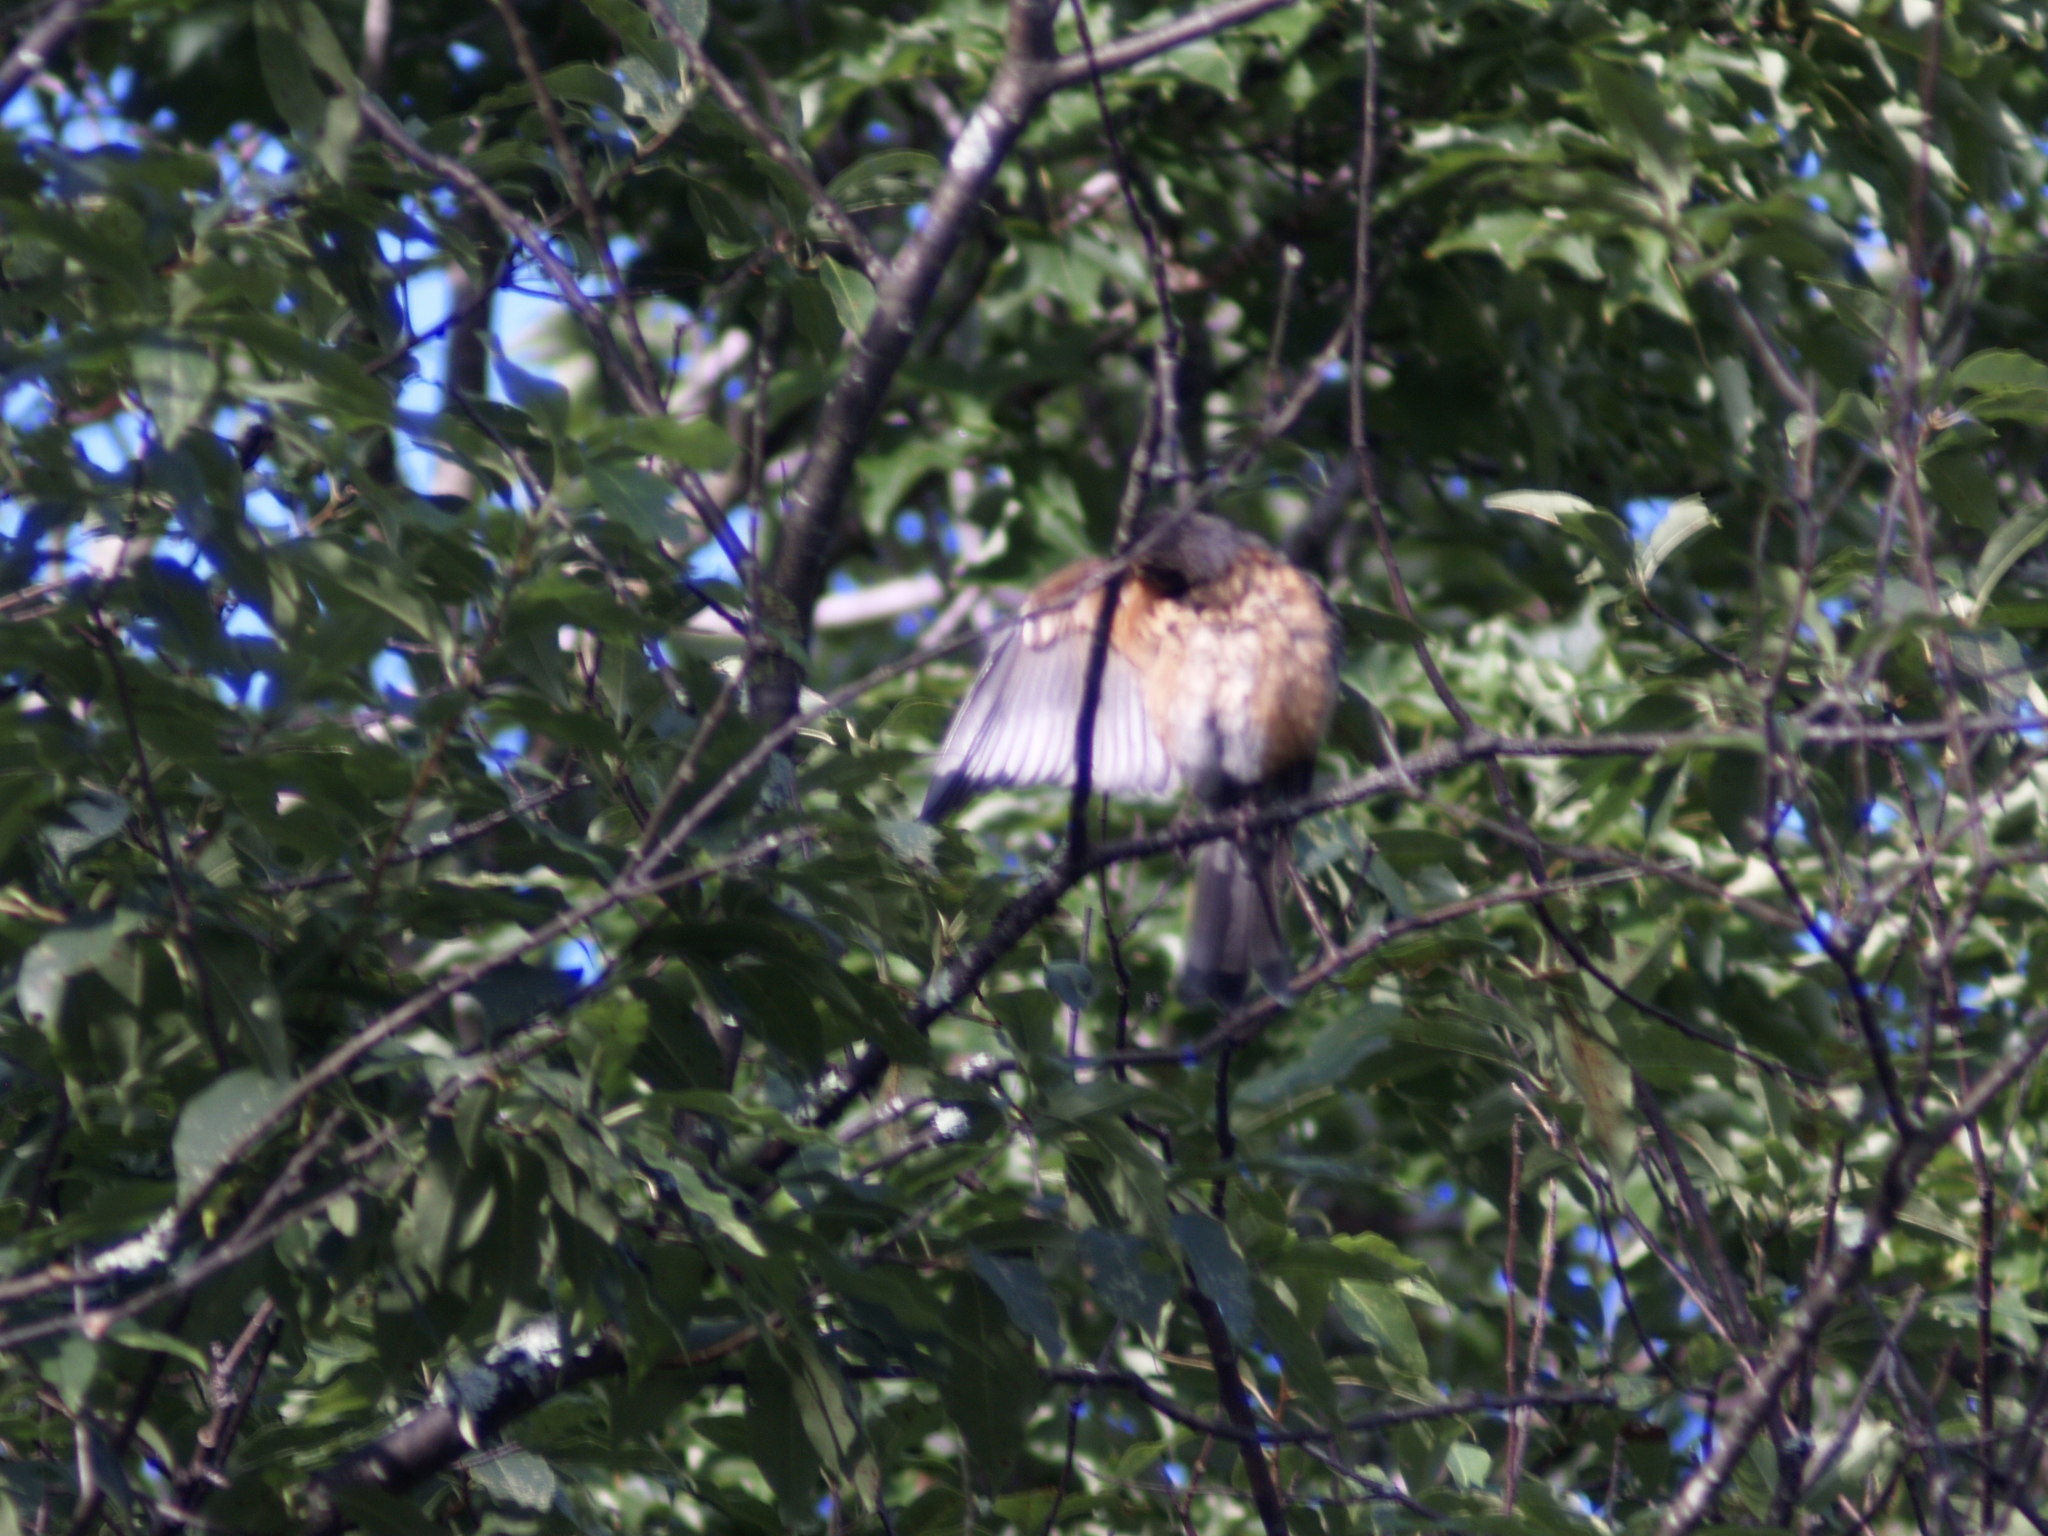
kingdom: Animalia
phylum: Chordata
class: Aves
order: Passeriformes
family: Turdidae
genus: Turdus
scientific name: Turdus migratorius
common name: American robin
